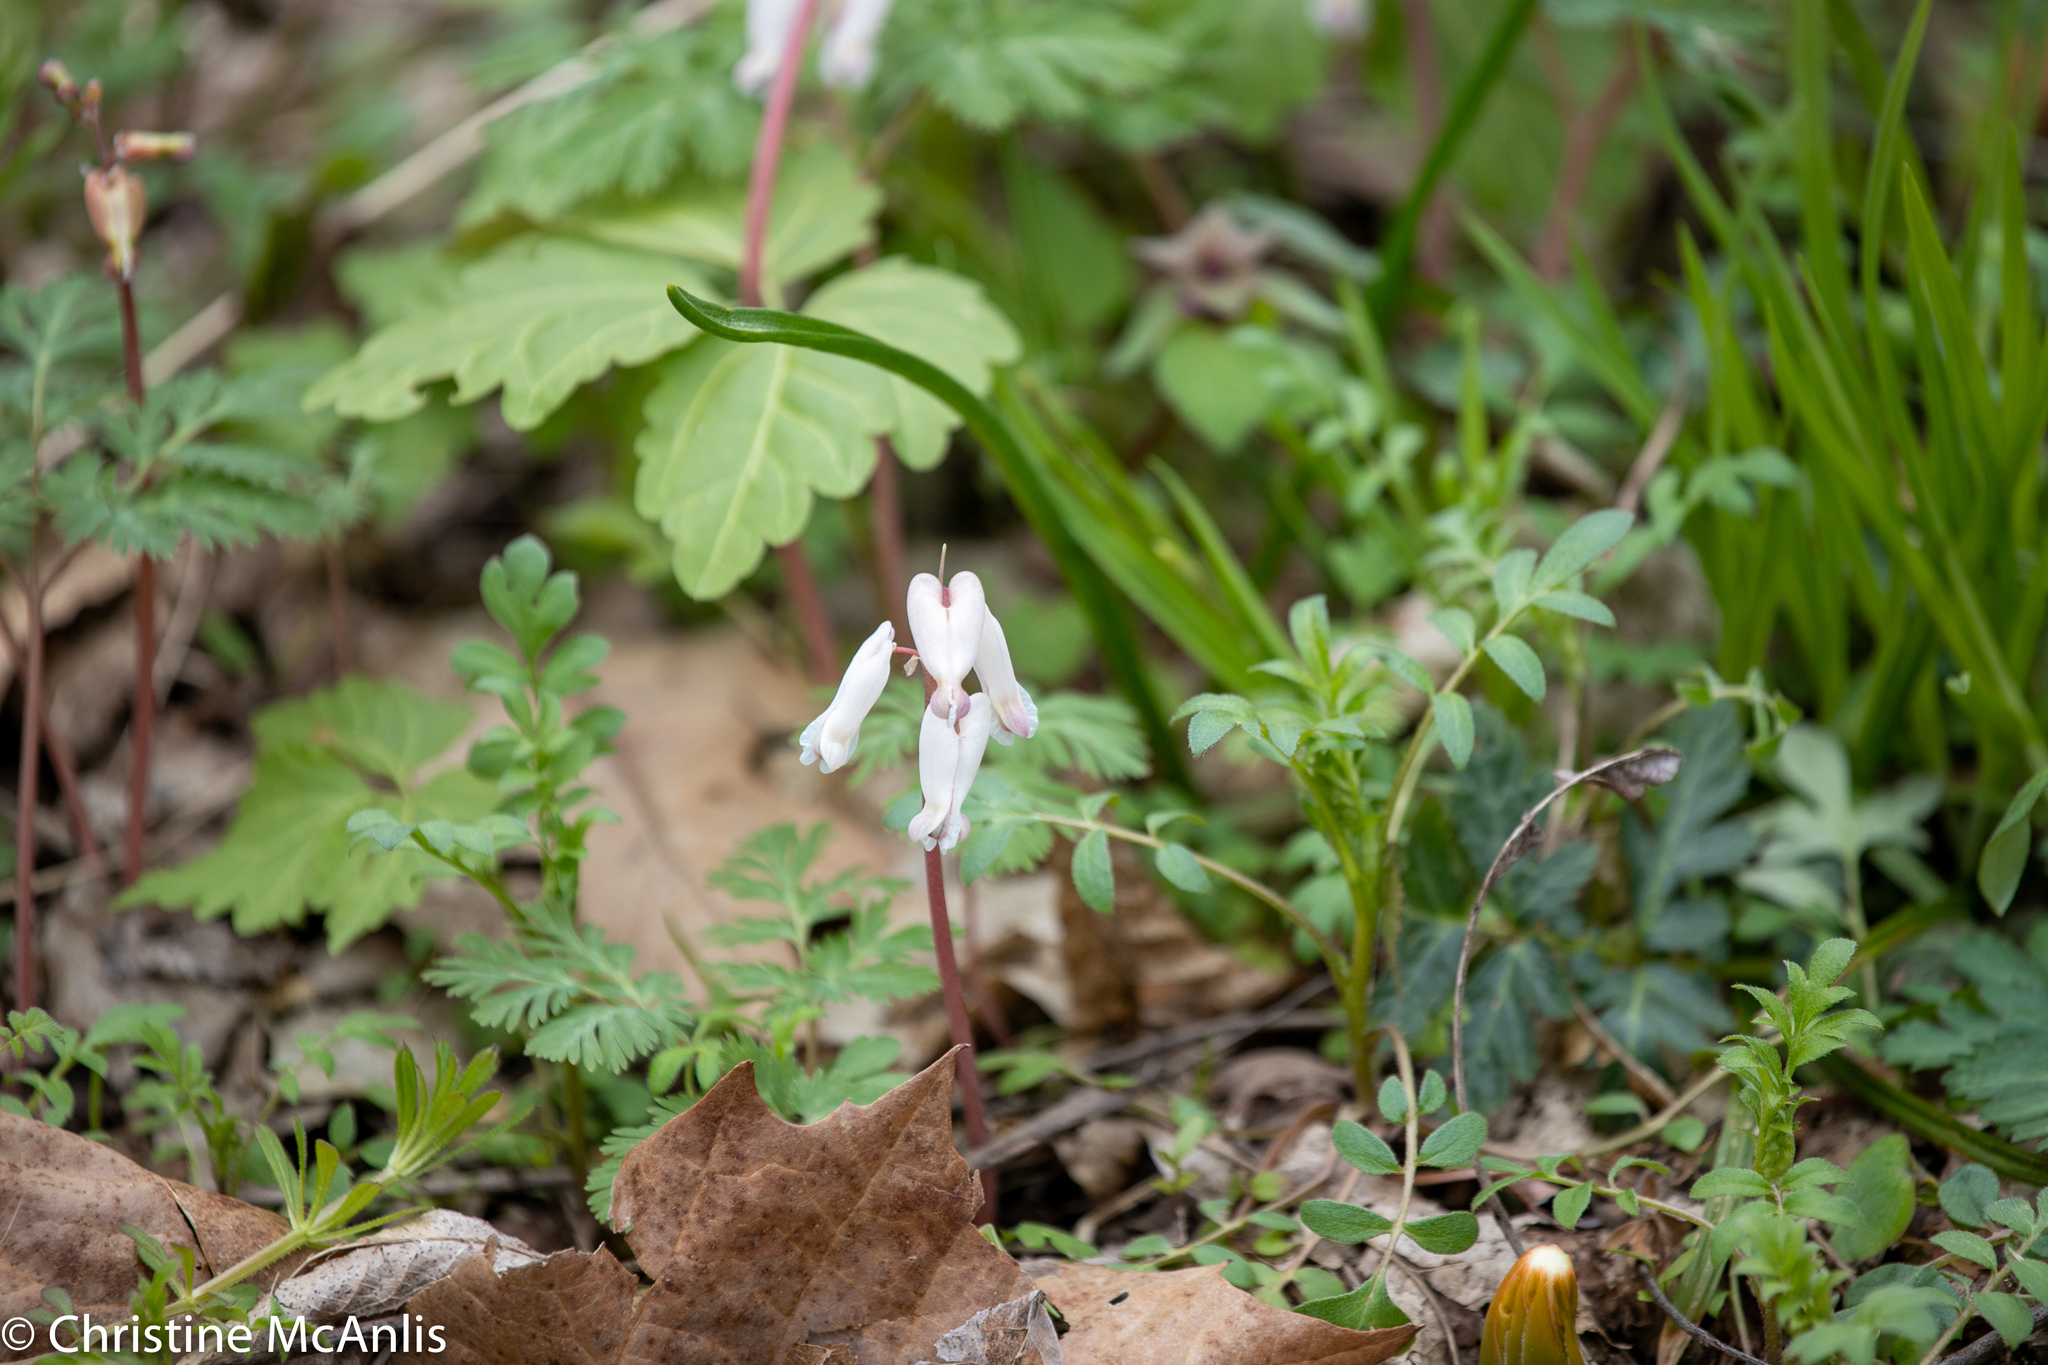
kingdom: Plantae
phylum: Tracheophyta
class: Magnoliopsida
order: Ranunculales
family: Papaveraceae
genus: Dicentra
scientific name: Dicentra canadensis
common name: Squirrel-corn
